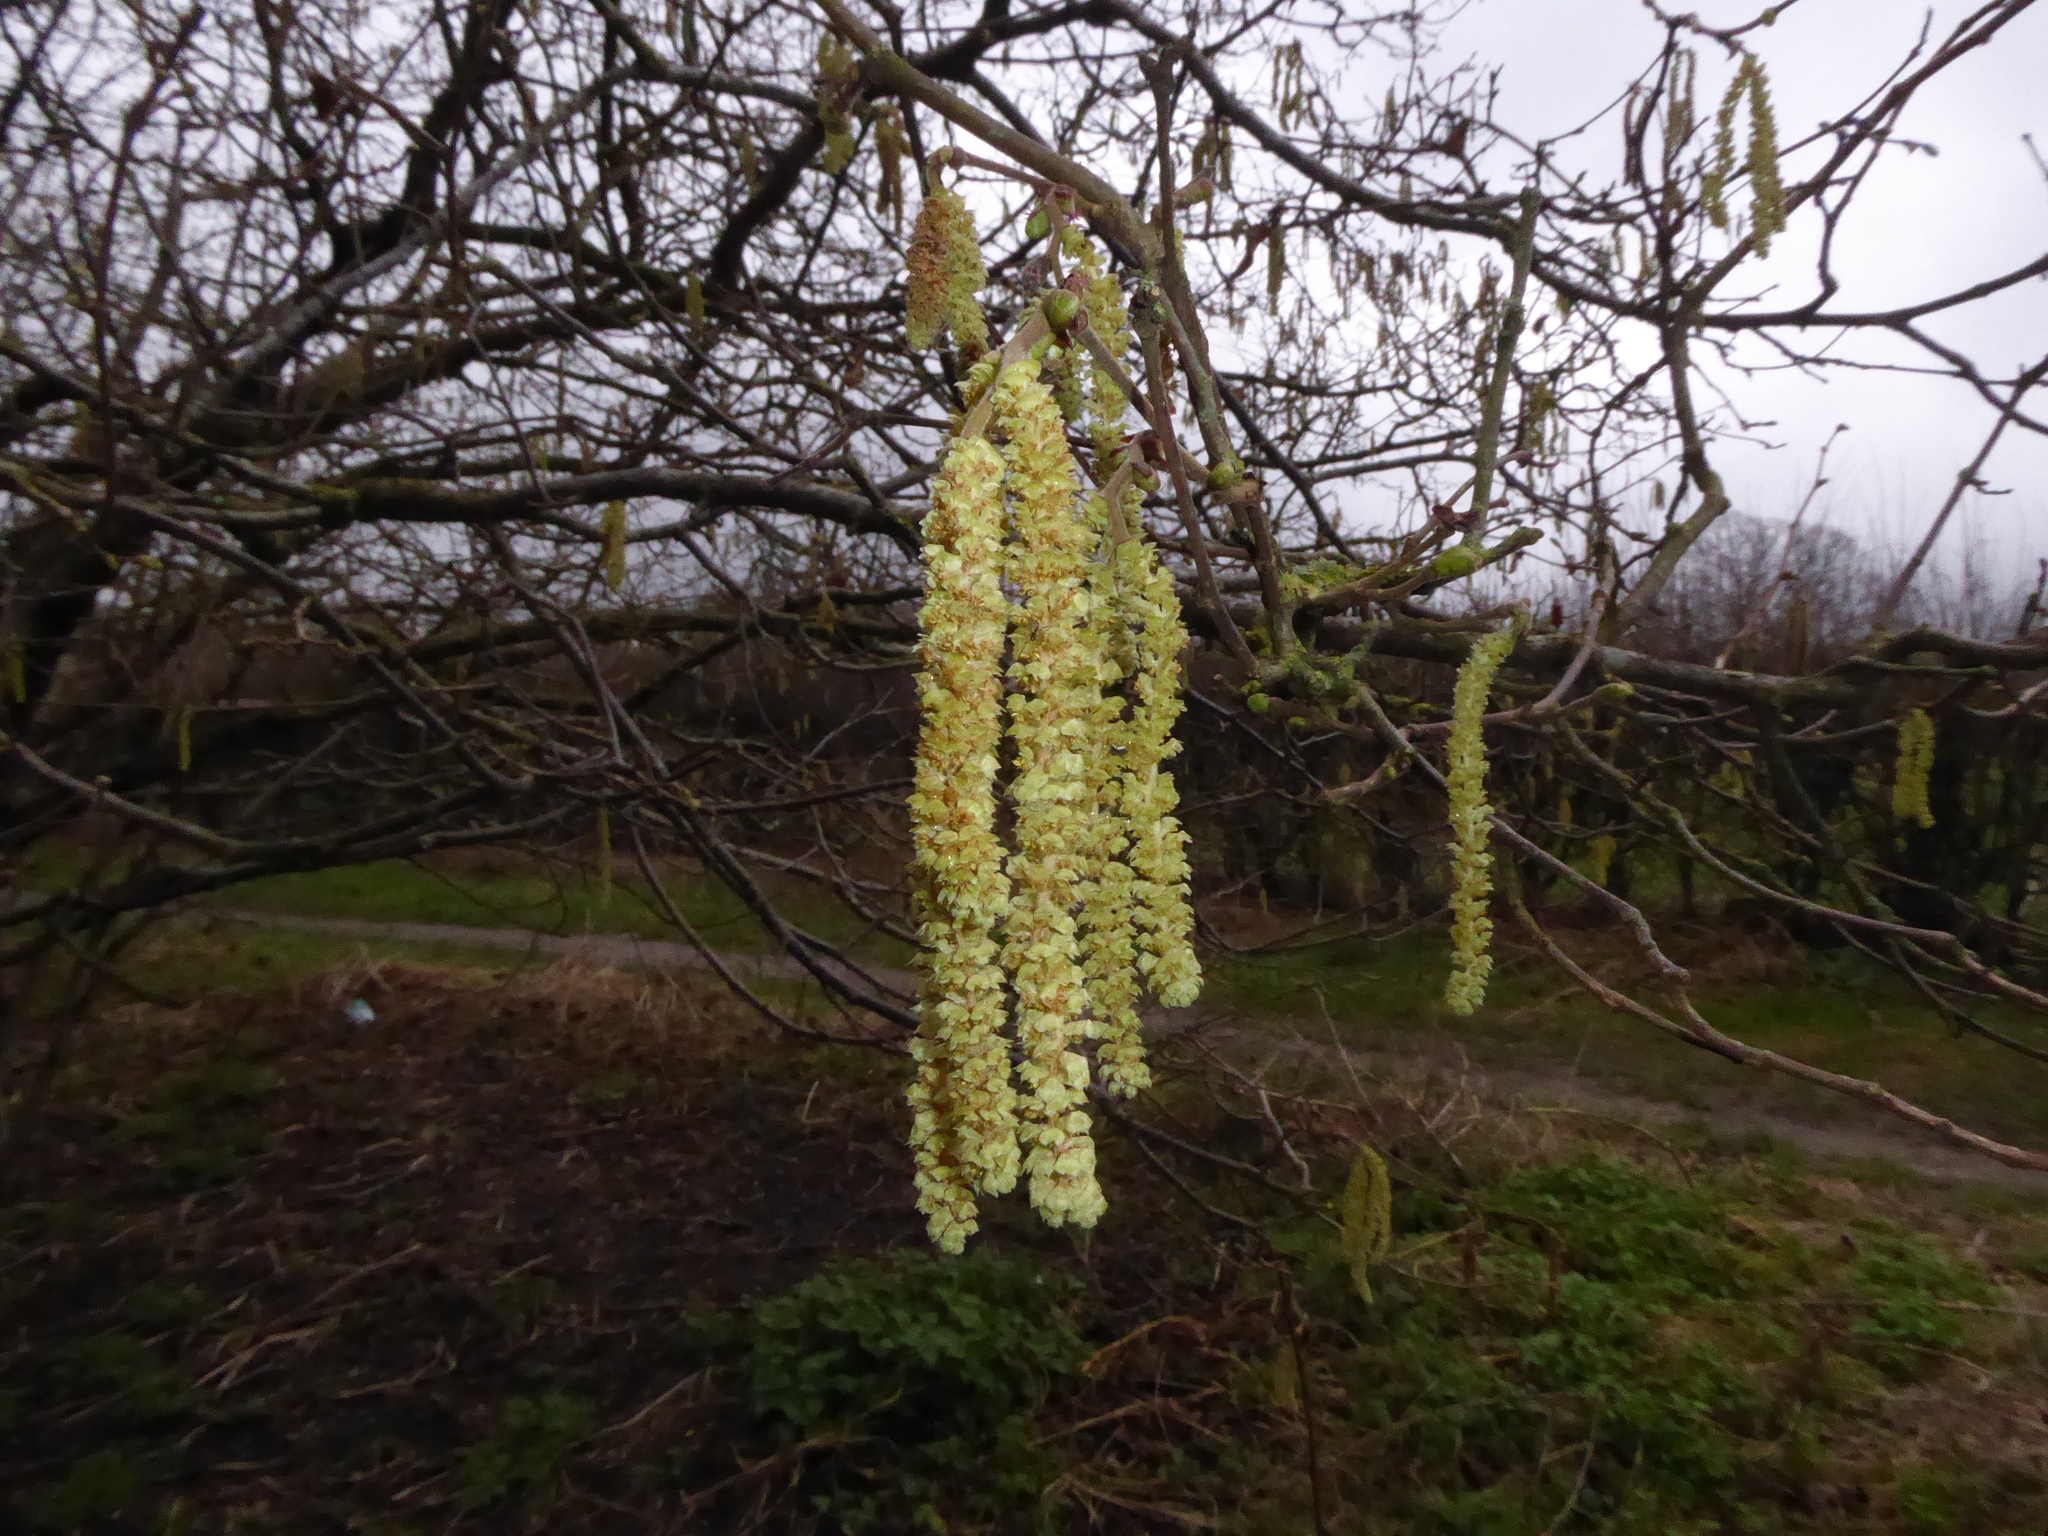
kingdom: Plantae
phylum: Tracheophyta
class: Magnoliopsida
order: Fagales
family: Betulaceae
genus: Corylus
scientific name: Corylus avellana
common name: European hazel
